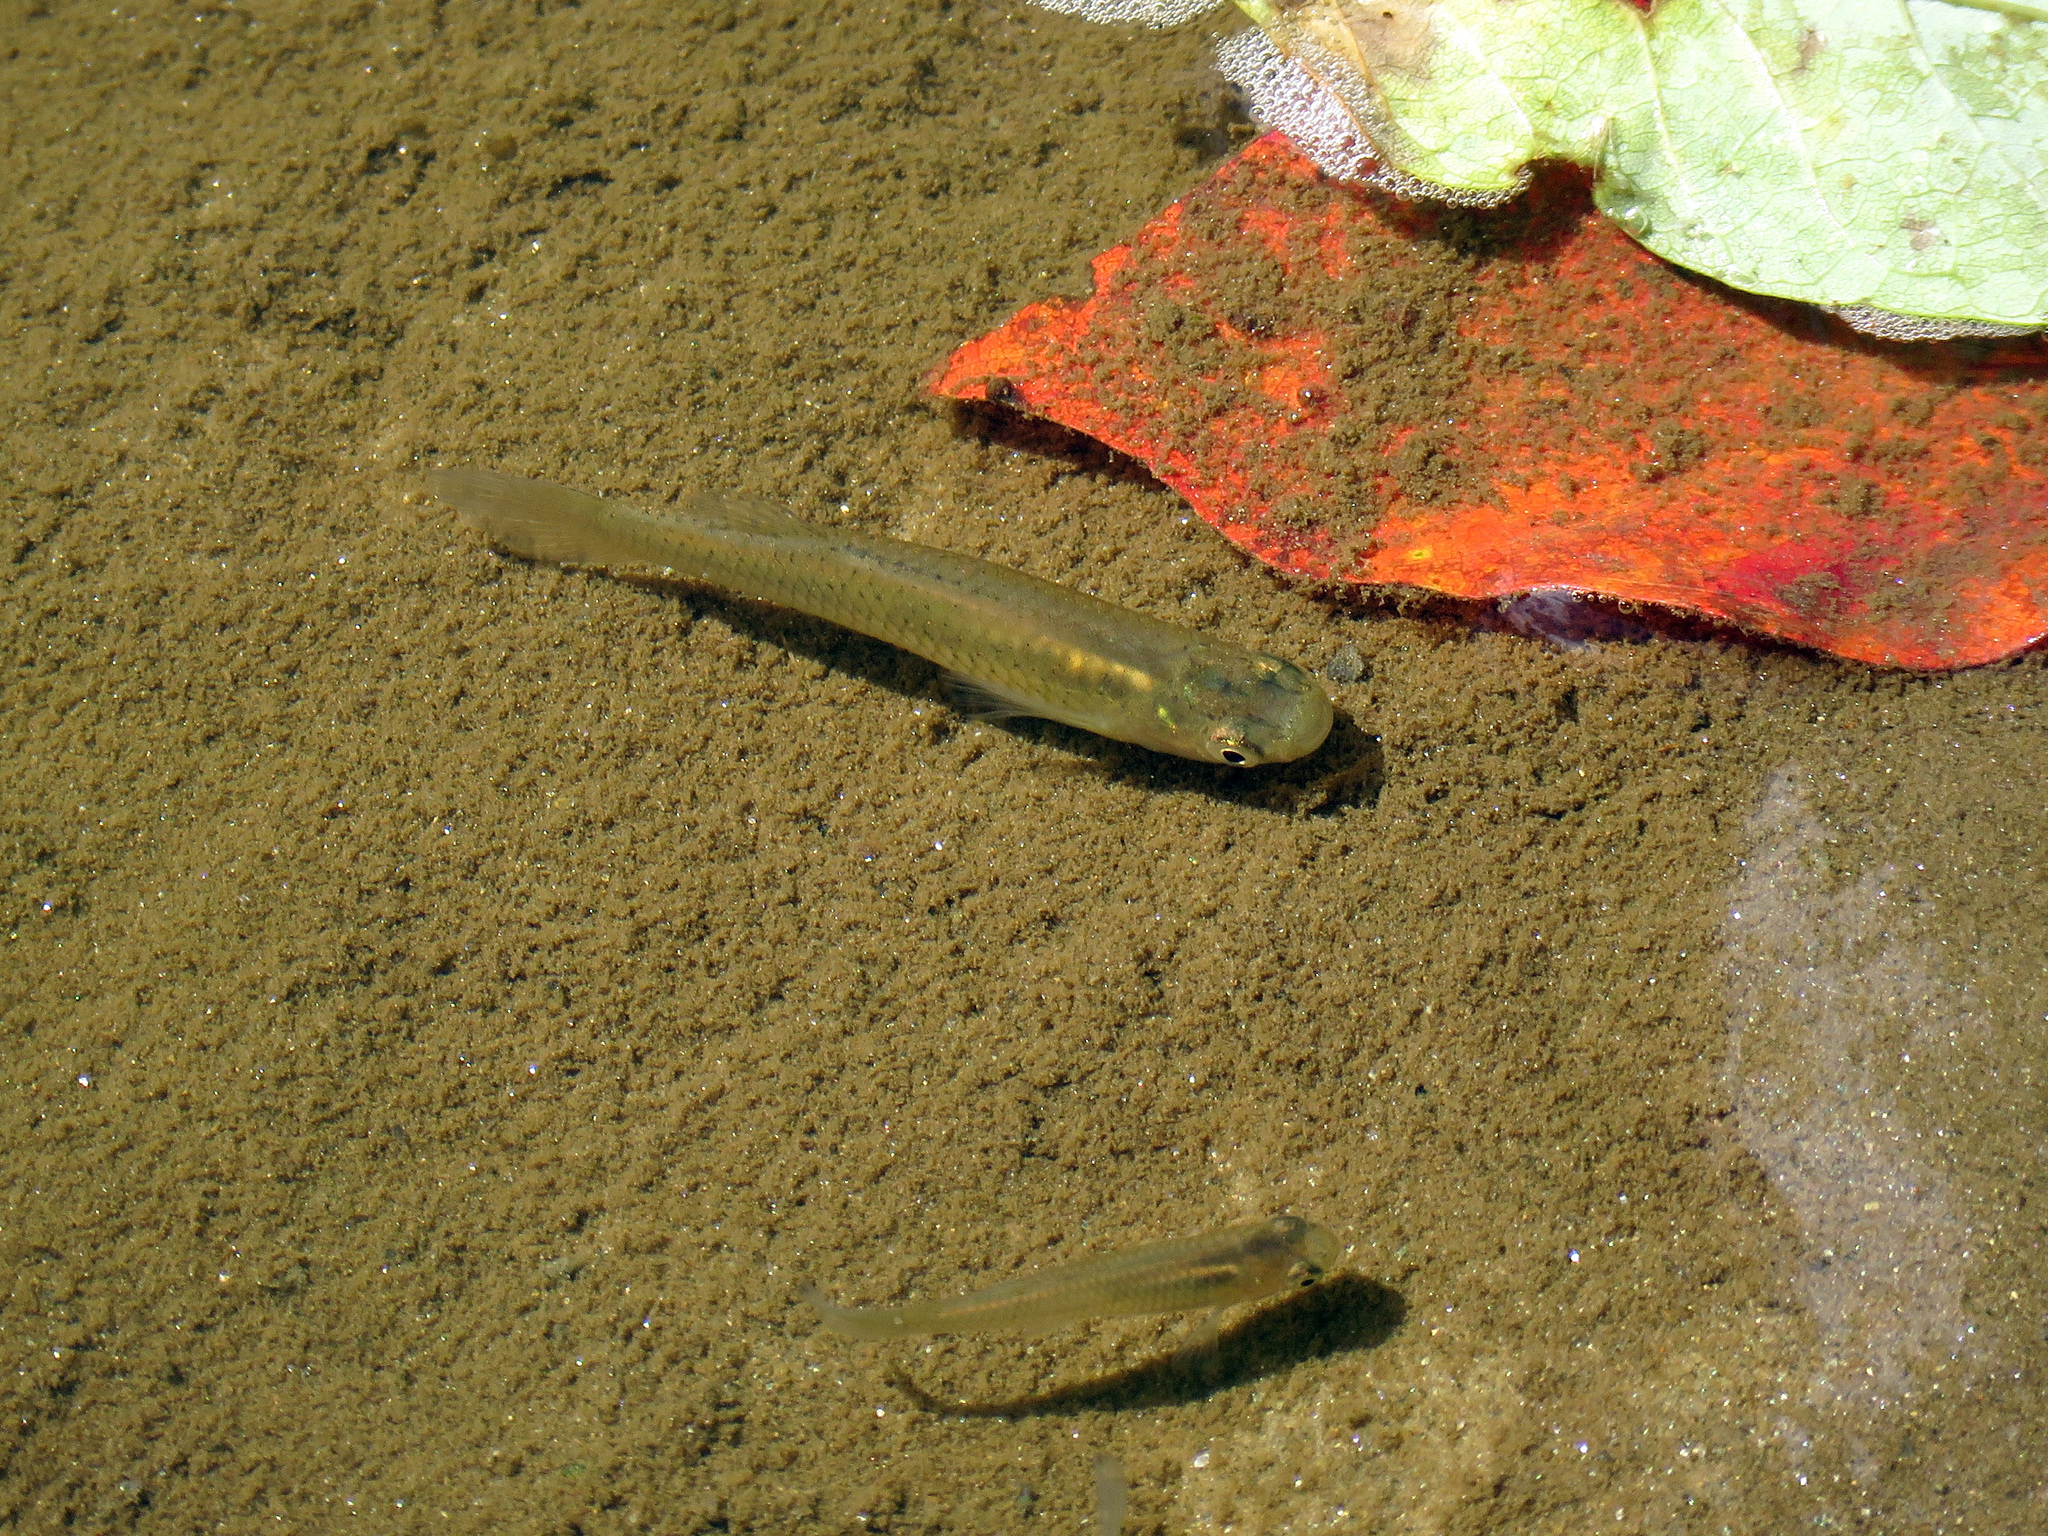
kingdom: Animalia
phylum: Chordata
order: Cyprinodontiformes
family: Poeciliidae
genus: Gambusia
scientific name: Gambusia holbrooki
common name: Eastern mosquitofish
